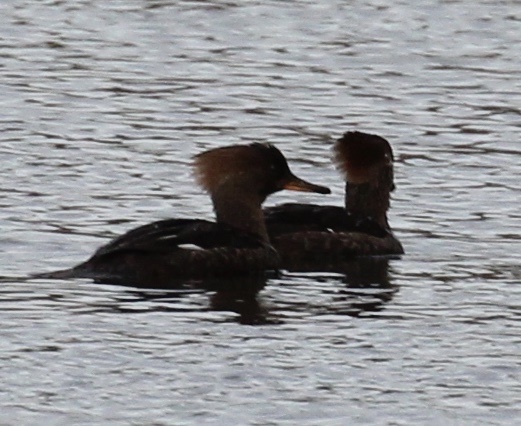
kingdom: Animalia
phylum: Chordata
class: Aves
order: Anseriformes
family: Anatidae
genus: Lophodytes
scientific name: Lophodytes cucullatus
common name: Hooded merganser
